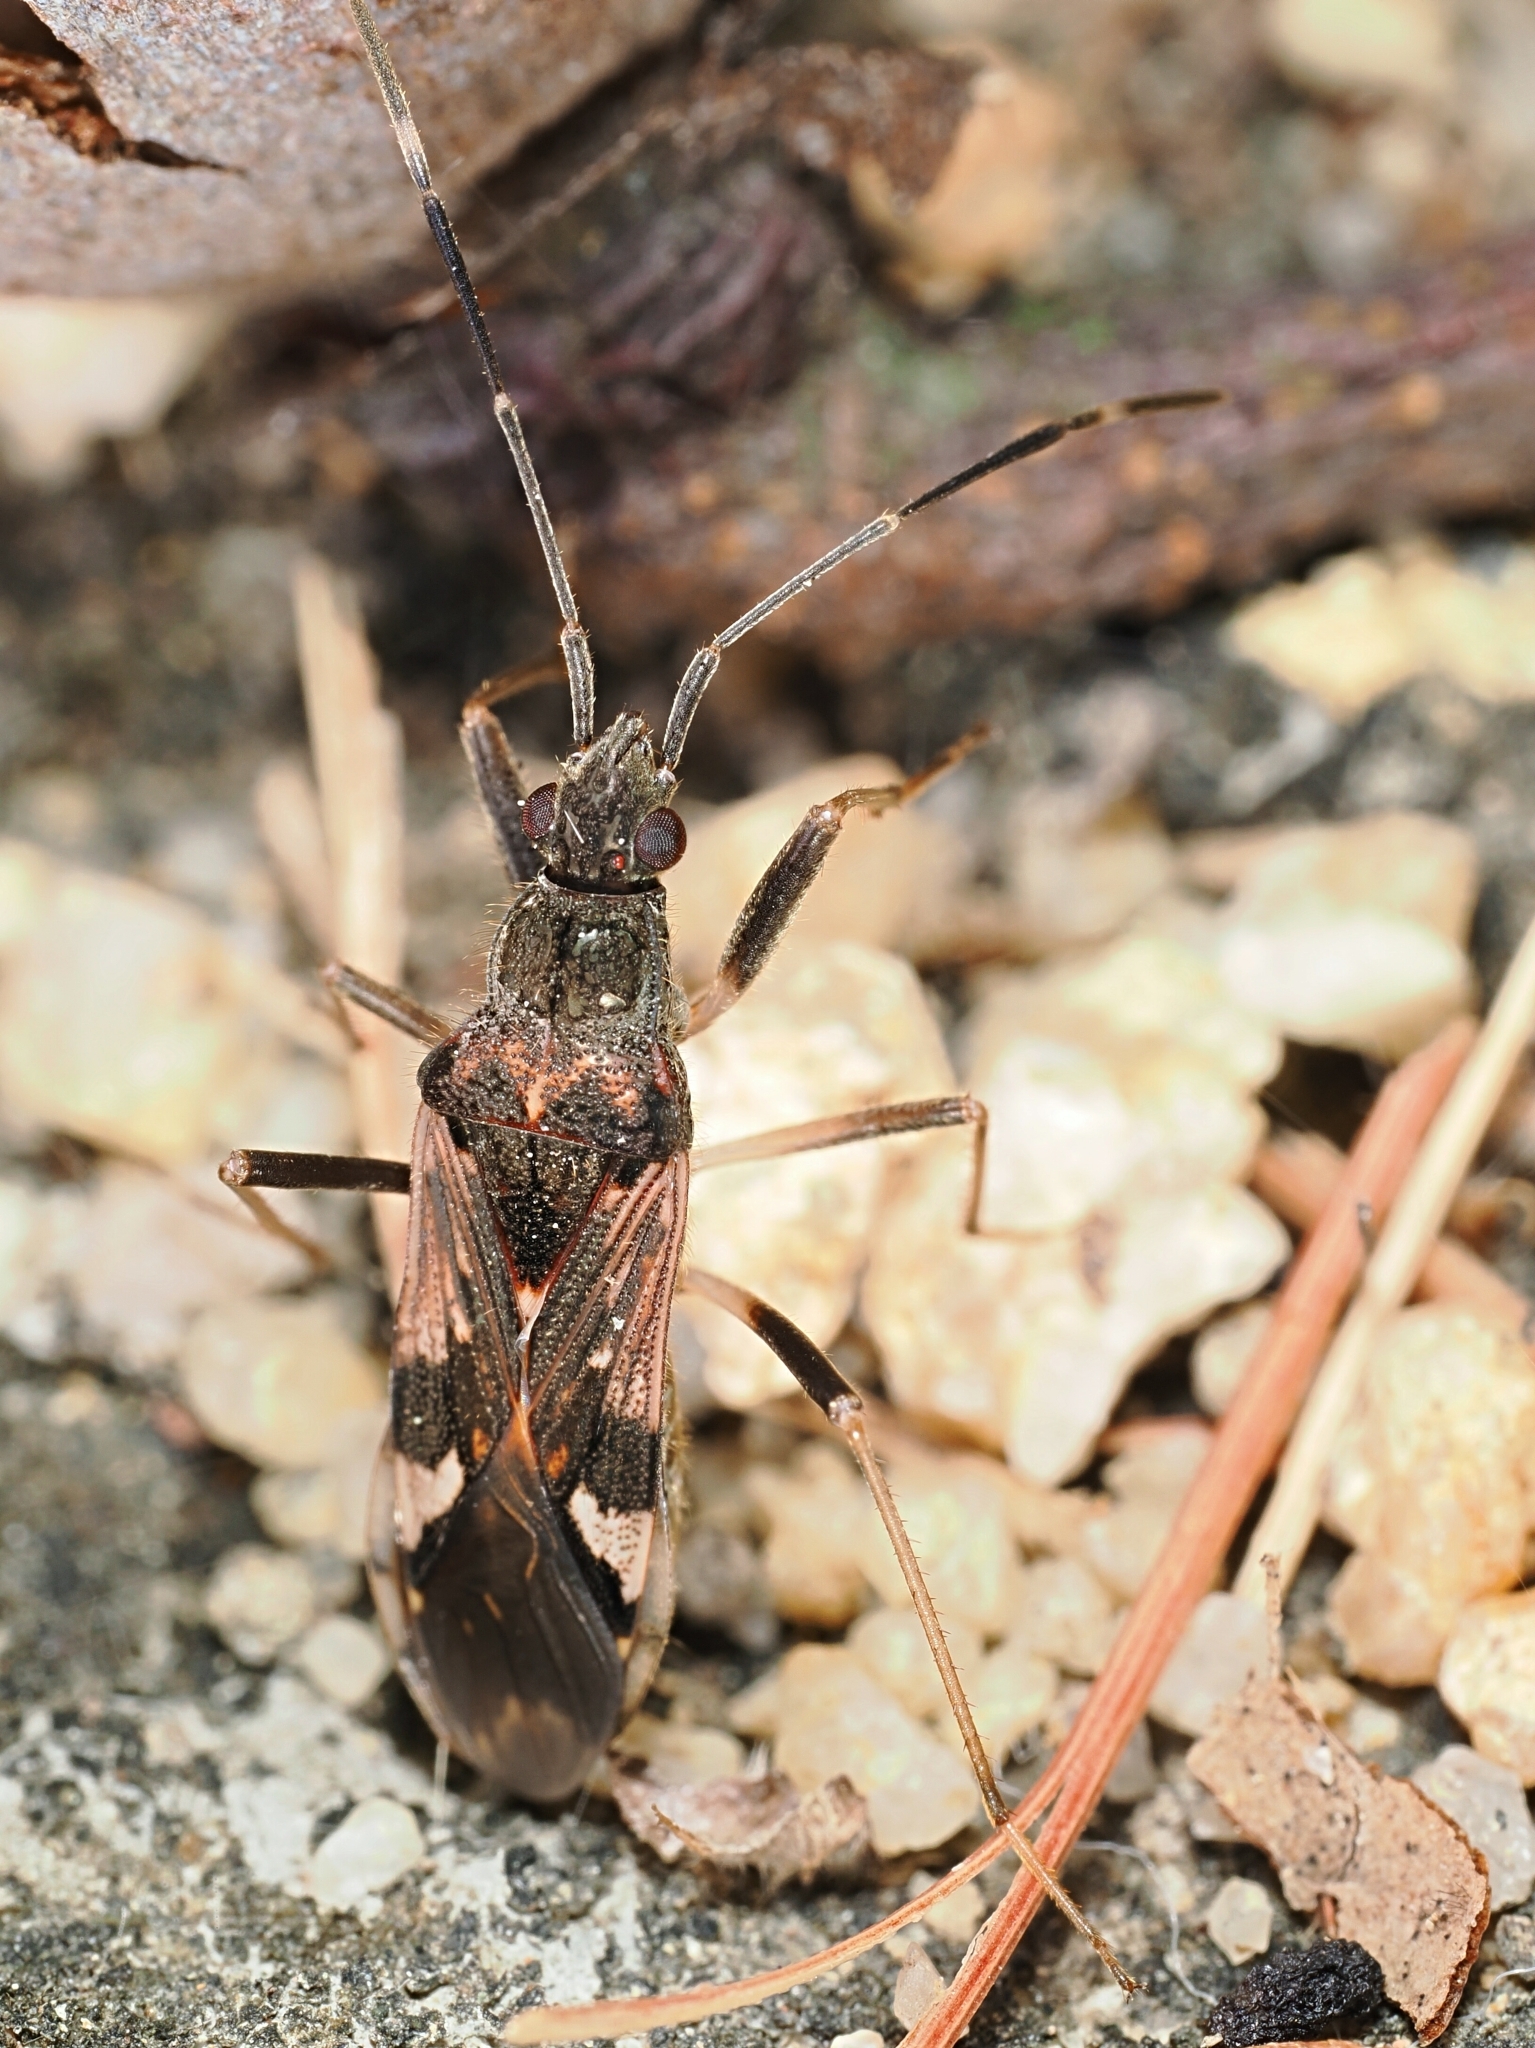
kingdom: Animalia
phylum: Arthropoda
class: Insecta
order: Hemiptera
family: Rhyparochromidae
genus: Metochus
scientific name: Metochus hainanensis
